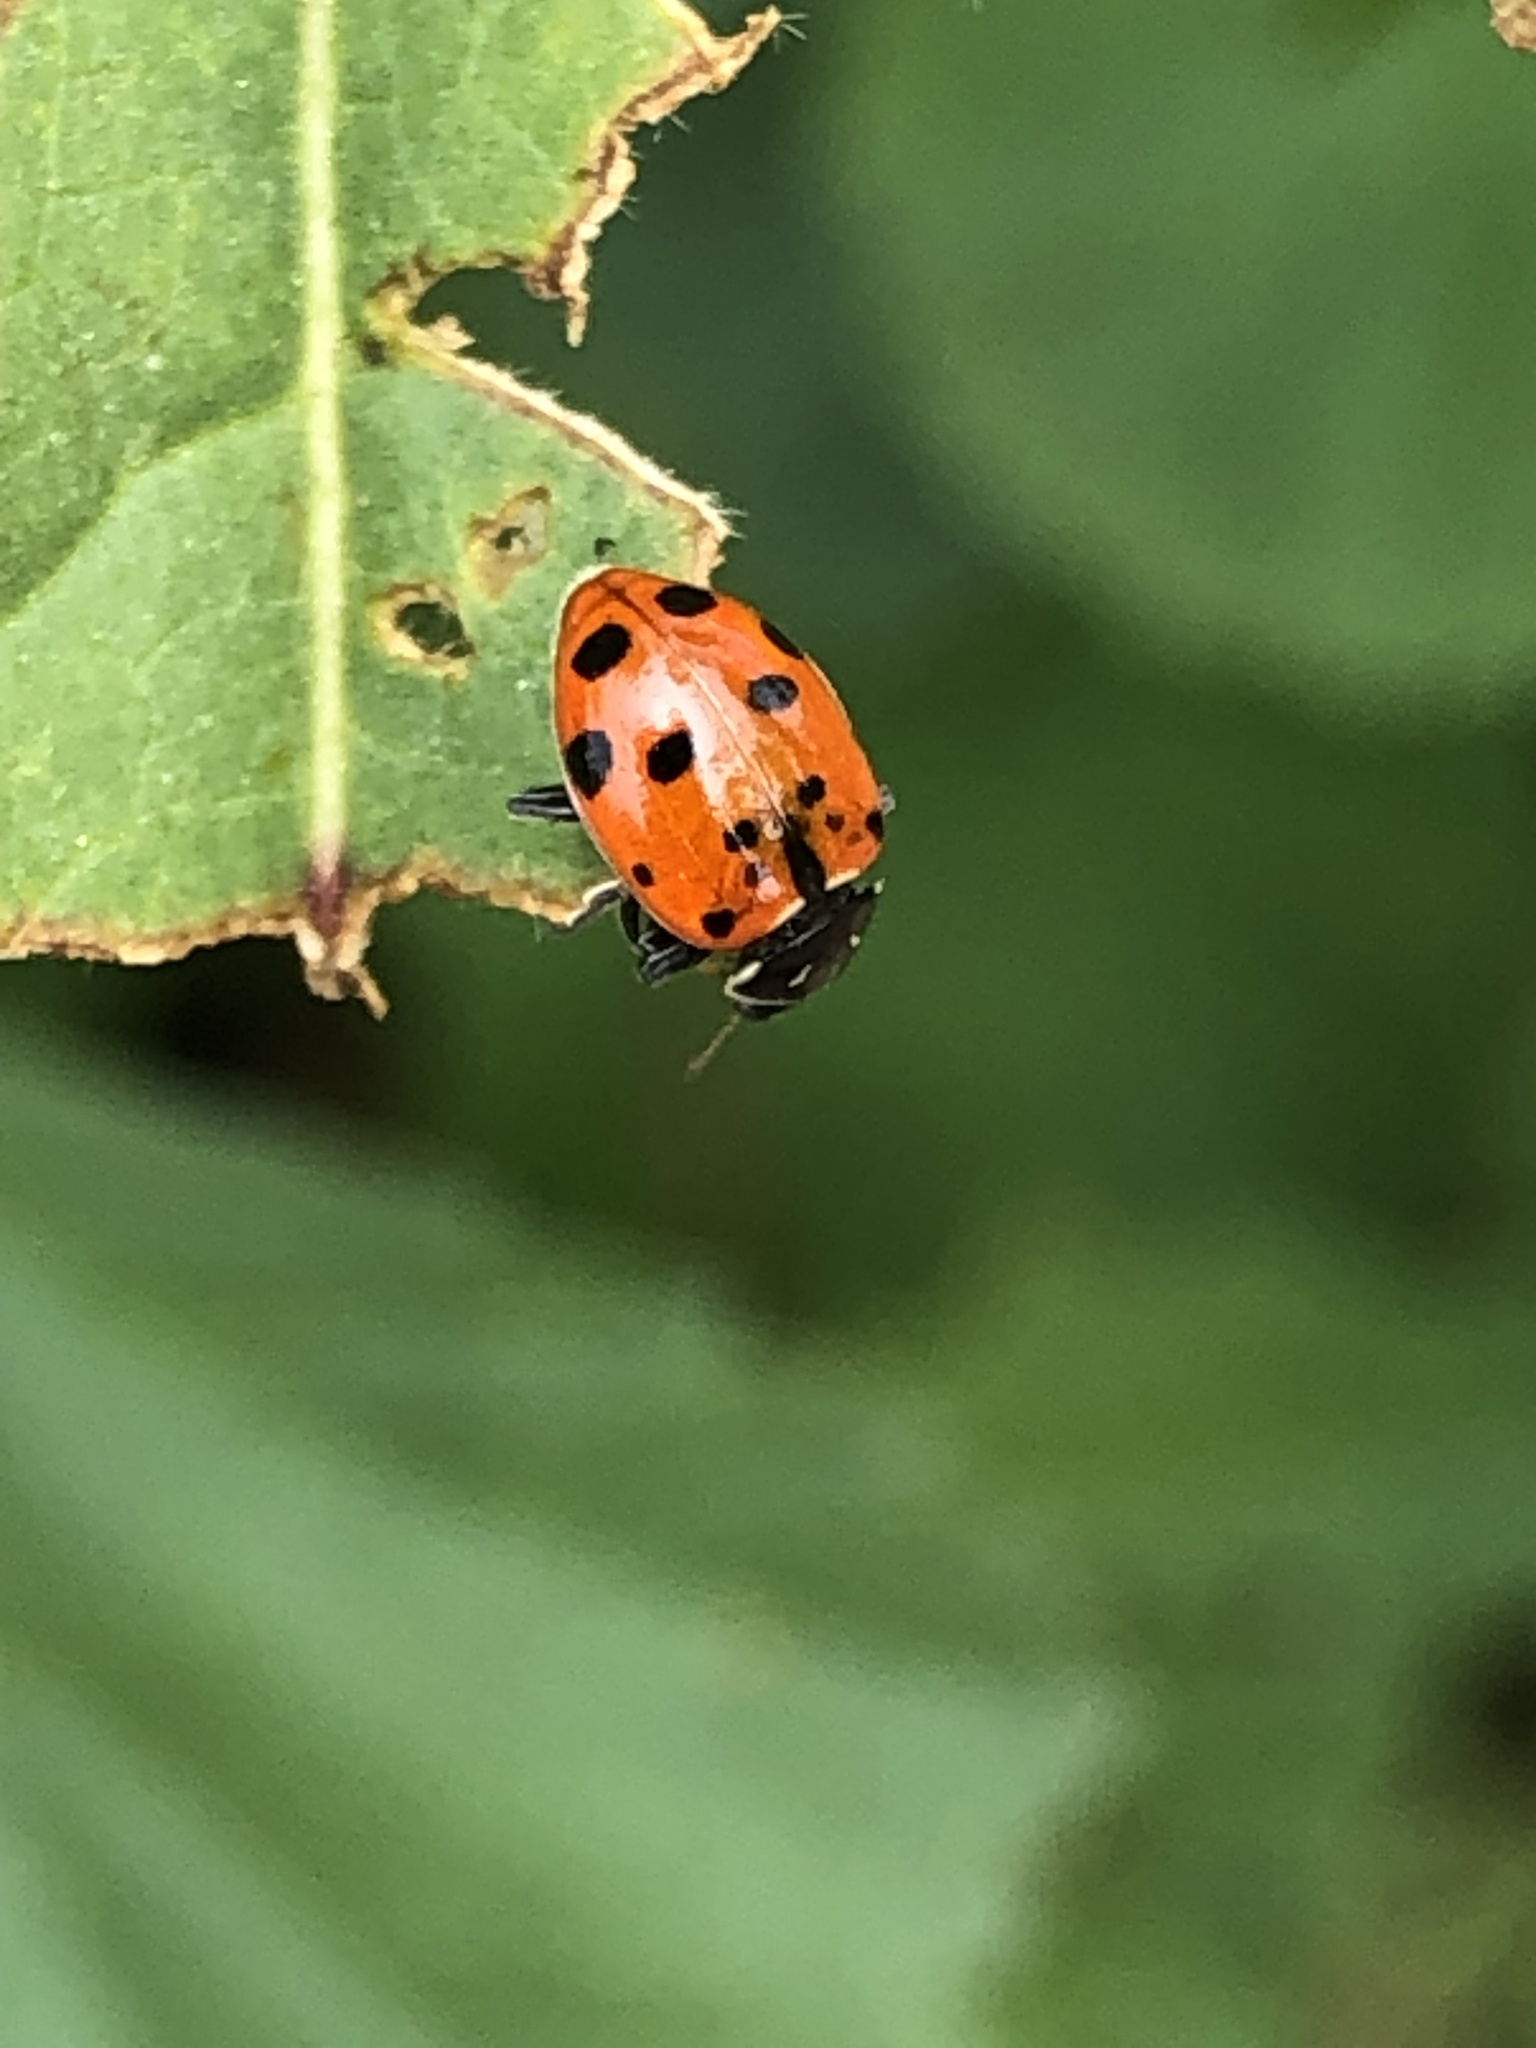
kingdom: Animalia
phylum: Arthropoda
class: Insecta
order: Coleoptera
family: Coccinellidae
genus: Hippodamia
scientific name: Hippodamia convergens
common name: Convergent lady beetle
